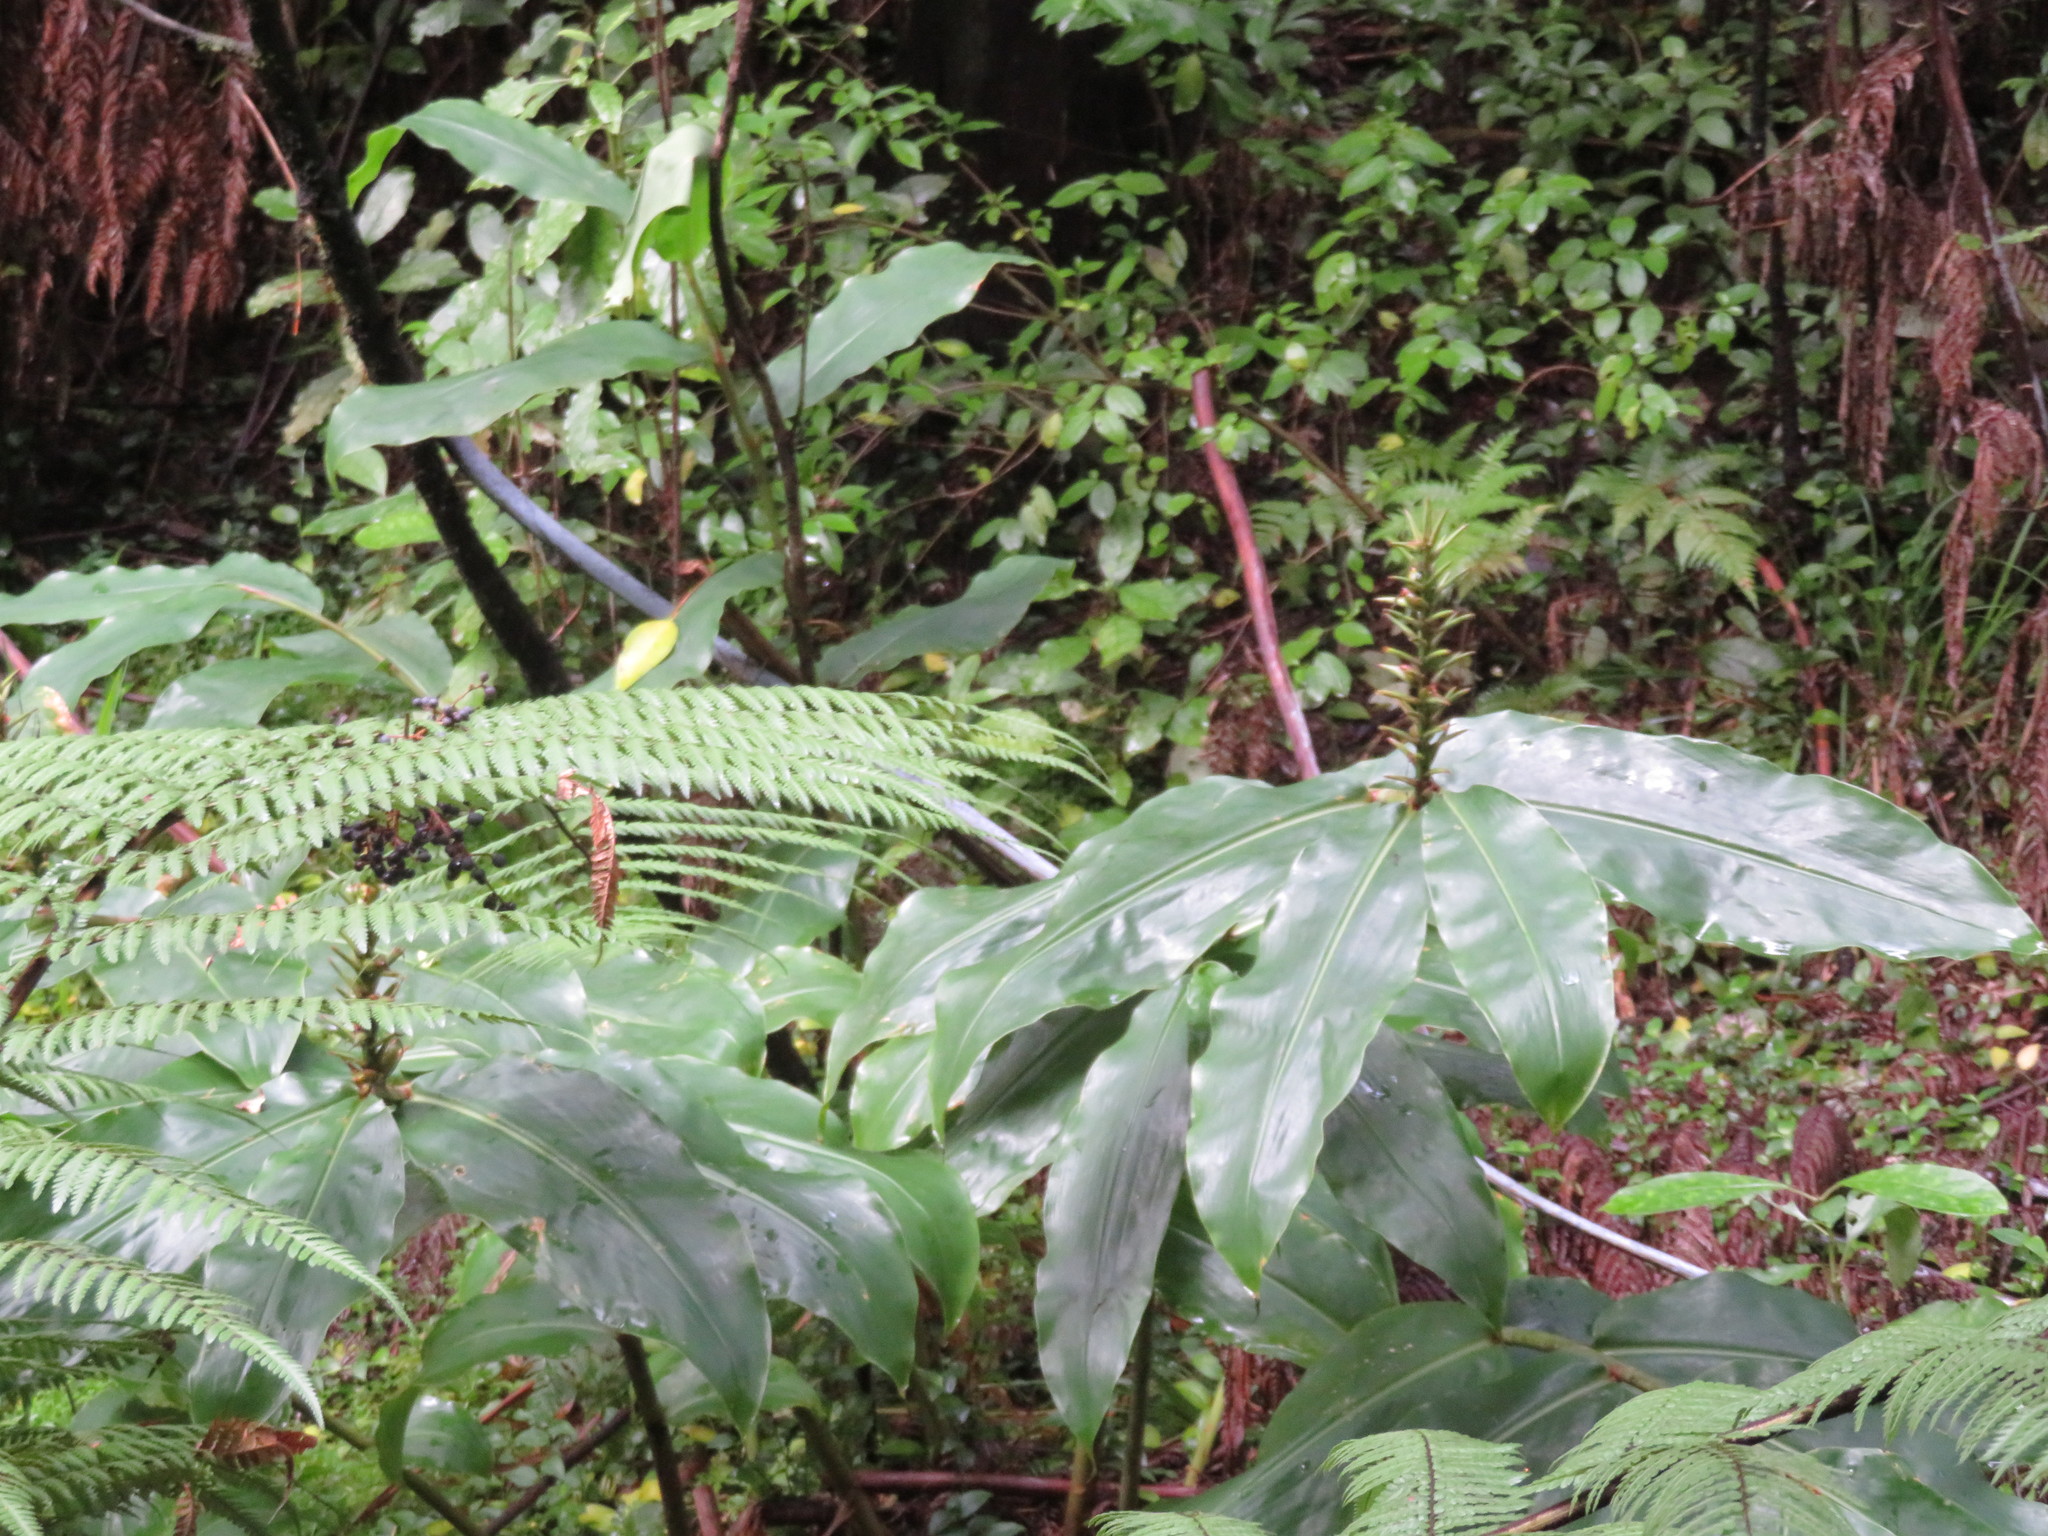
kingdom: Plantae
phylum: Tracheophyta
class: Liliopsida
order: Zingiberales
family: Zingiberaceae
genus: Hedychium
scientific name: Hedychium gardnerianum
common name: Himalayan ginger
